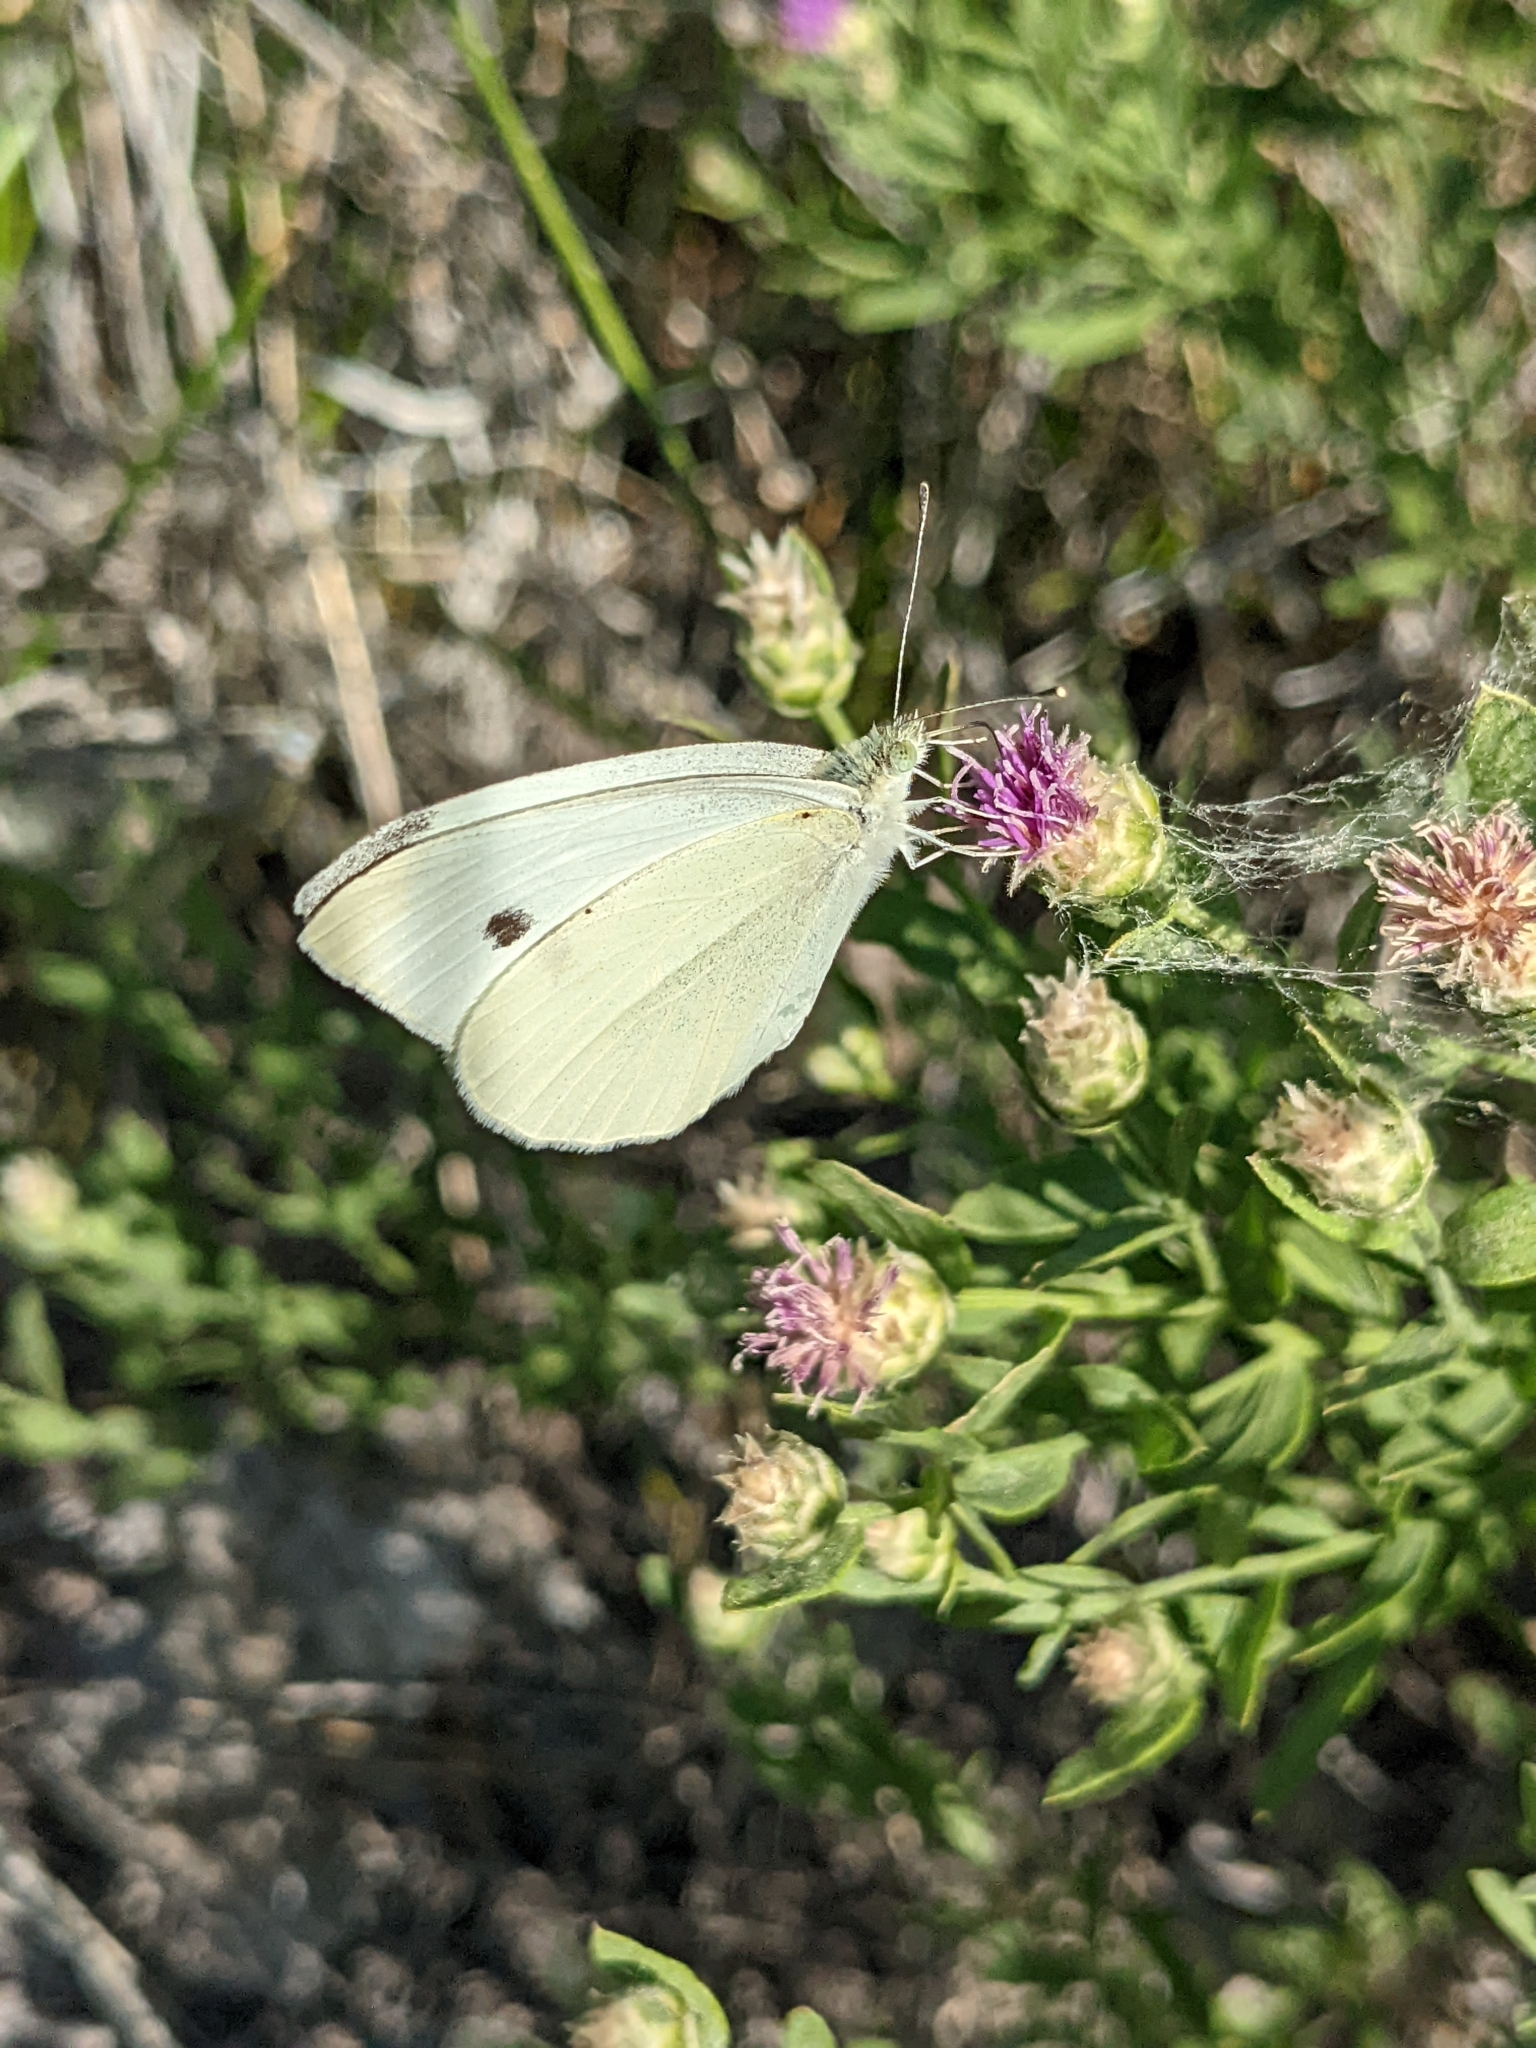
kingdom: Animalia
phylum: Arthropoda
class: Insecta
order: Lepidoptera
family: Pieridae
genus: Pieris
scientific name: Pieris rapae
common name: Small white
